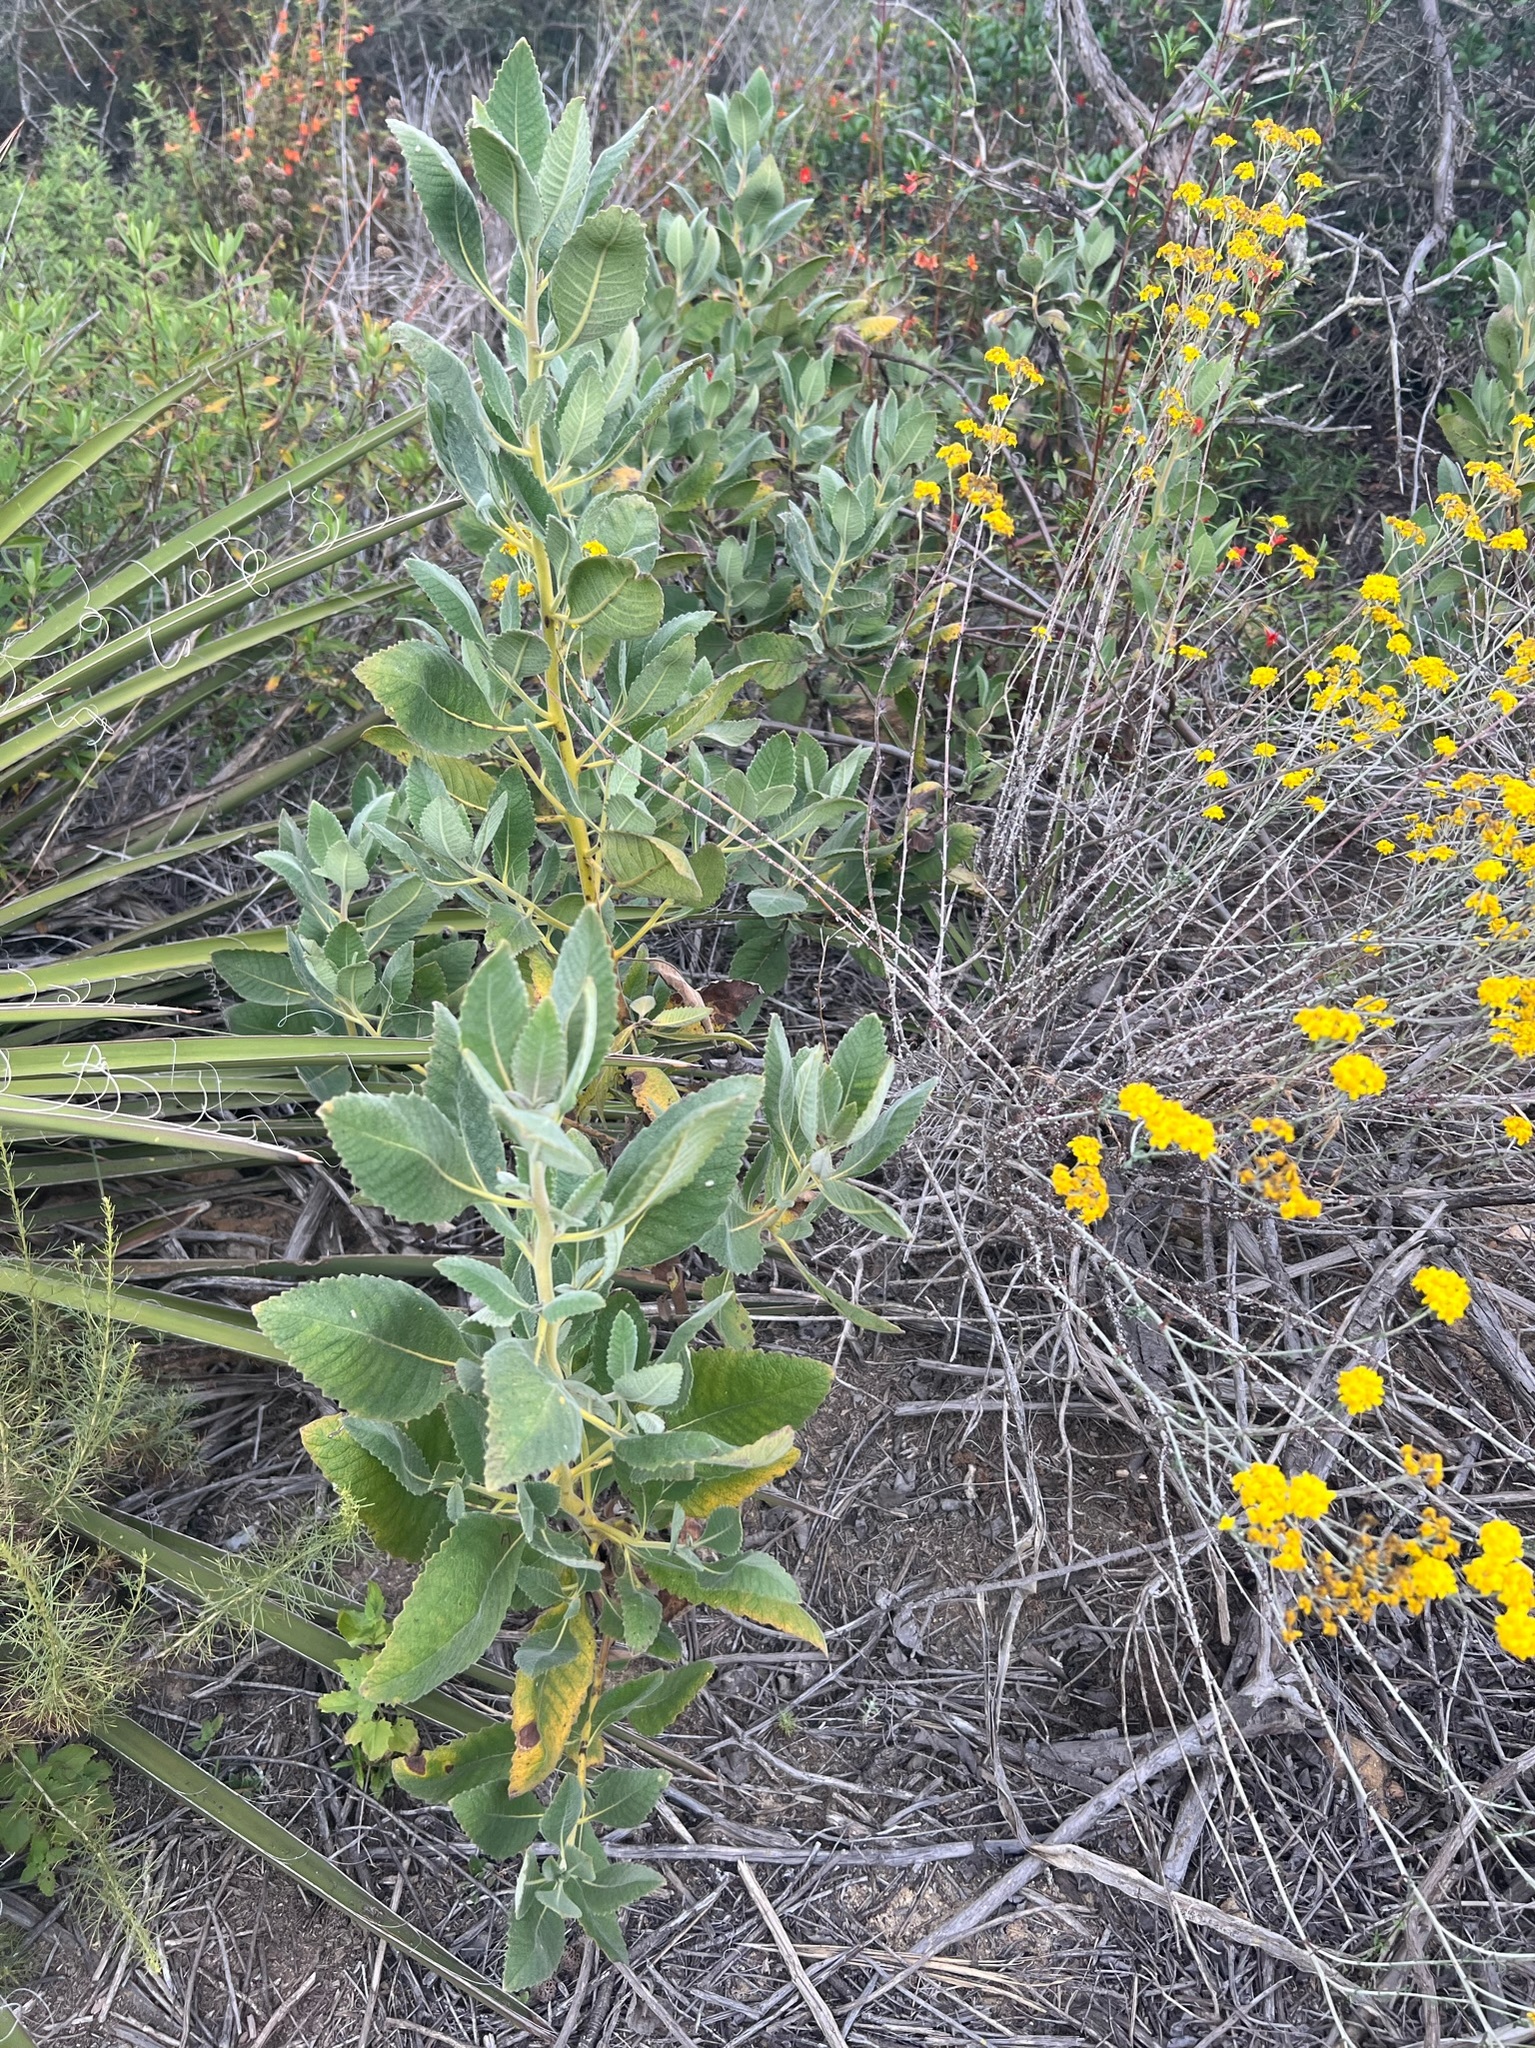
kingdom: Plantae
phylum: Tracheophyta
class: Magnoliopsida
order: Boraginales
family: Namaceae
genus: Eriodictyon
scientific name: Eriodictyon crassifolium
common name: Thick-leaf yerba-santa
